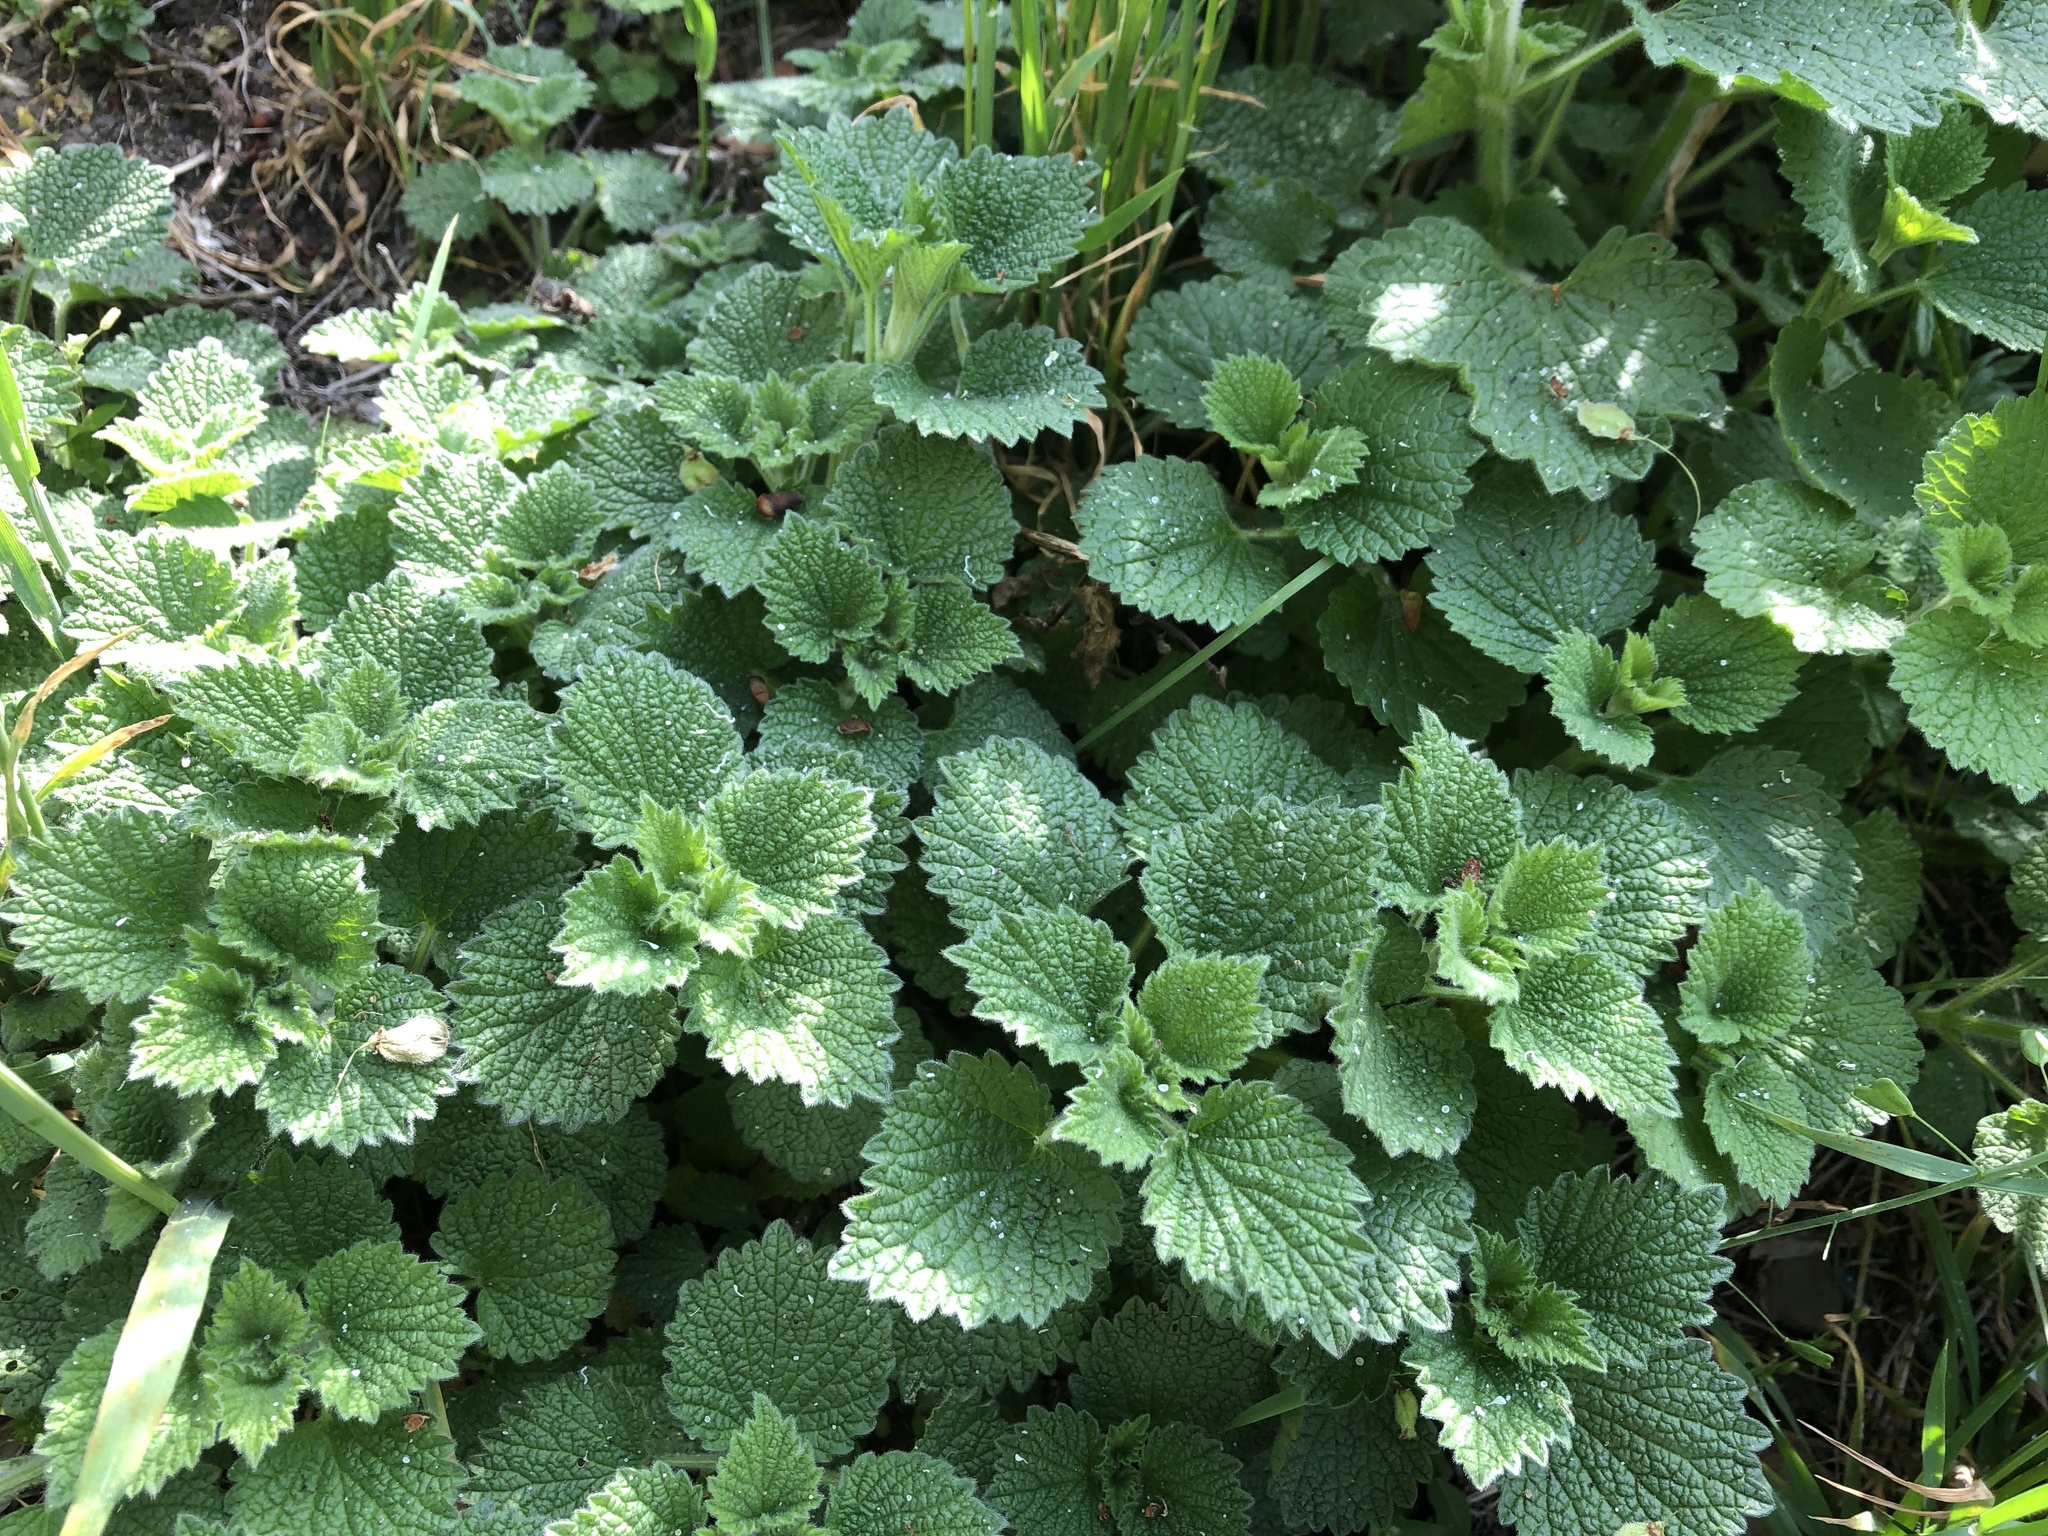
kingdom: Plantae
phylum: Tracheophyta
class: Magnoliopsida
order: Lamiales
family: Lamiaceae
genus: Ballota
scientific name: Ballota nigra
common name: Black horehound
